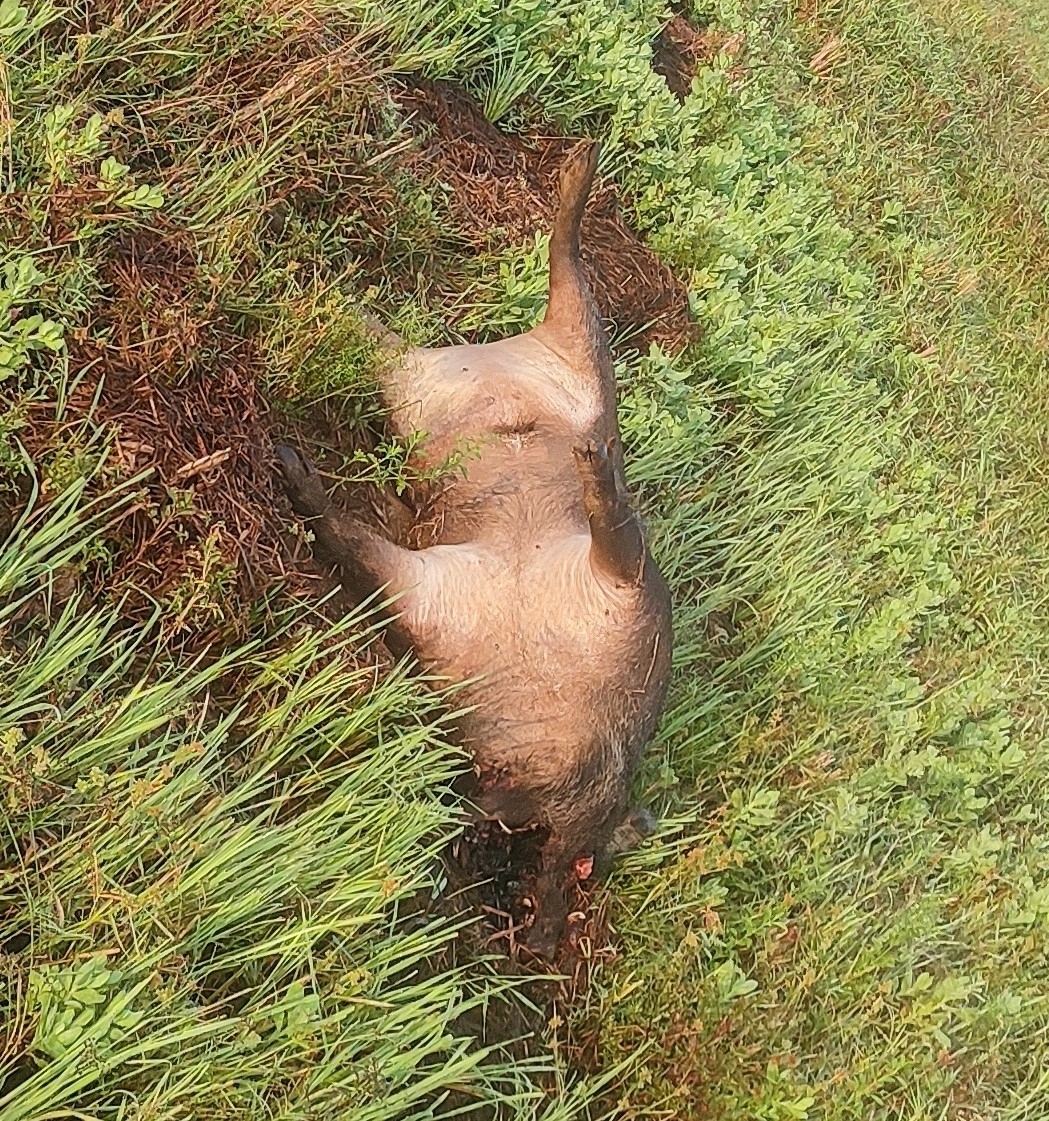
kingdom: Animalia
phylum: Chordata
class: Mammalia
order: Artiodactyla
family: Suidae
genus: Sus
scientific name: Sus scrofa
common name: Wild boar
